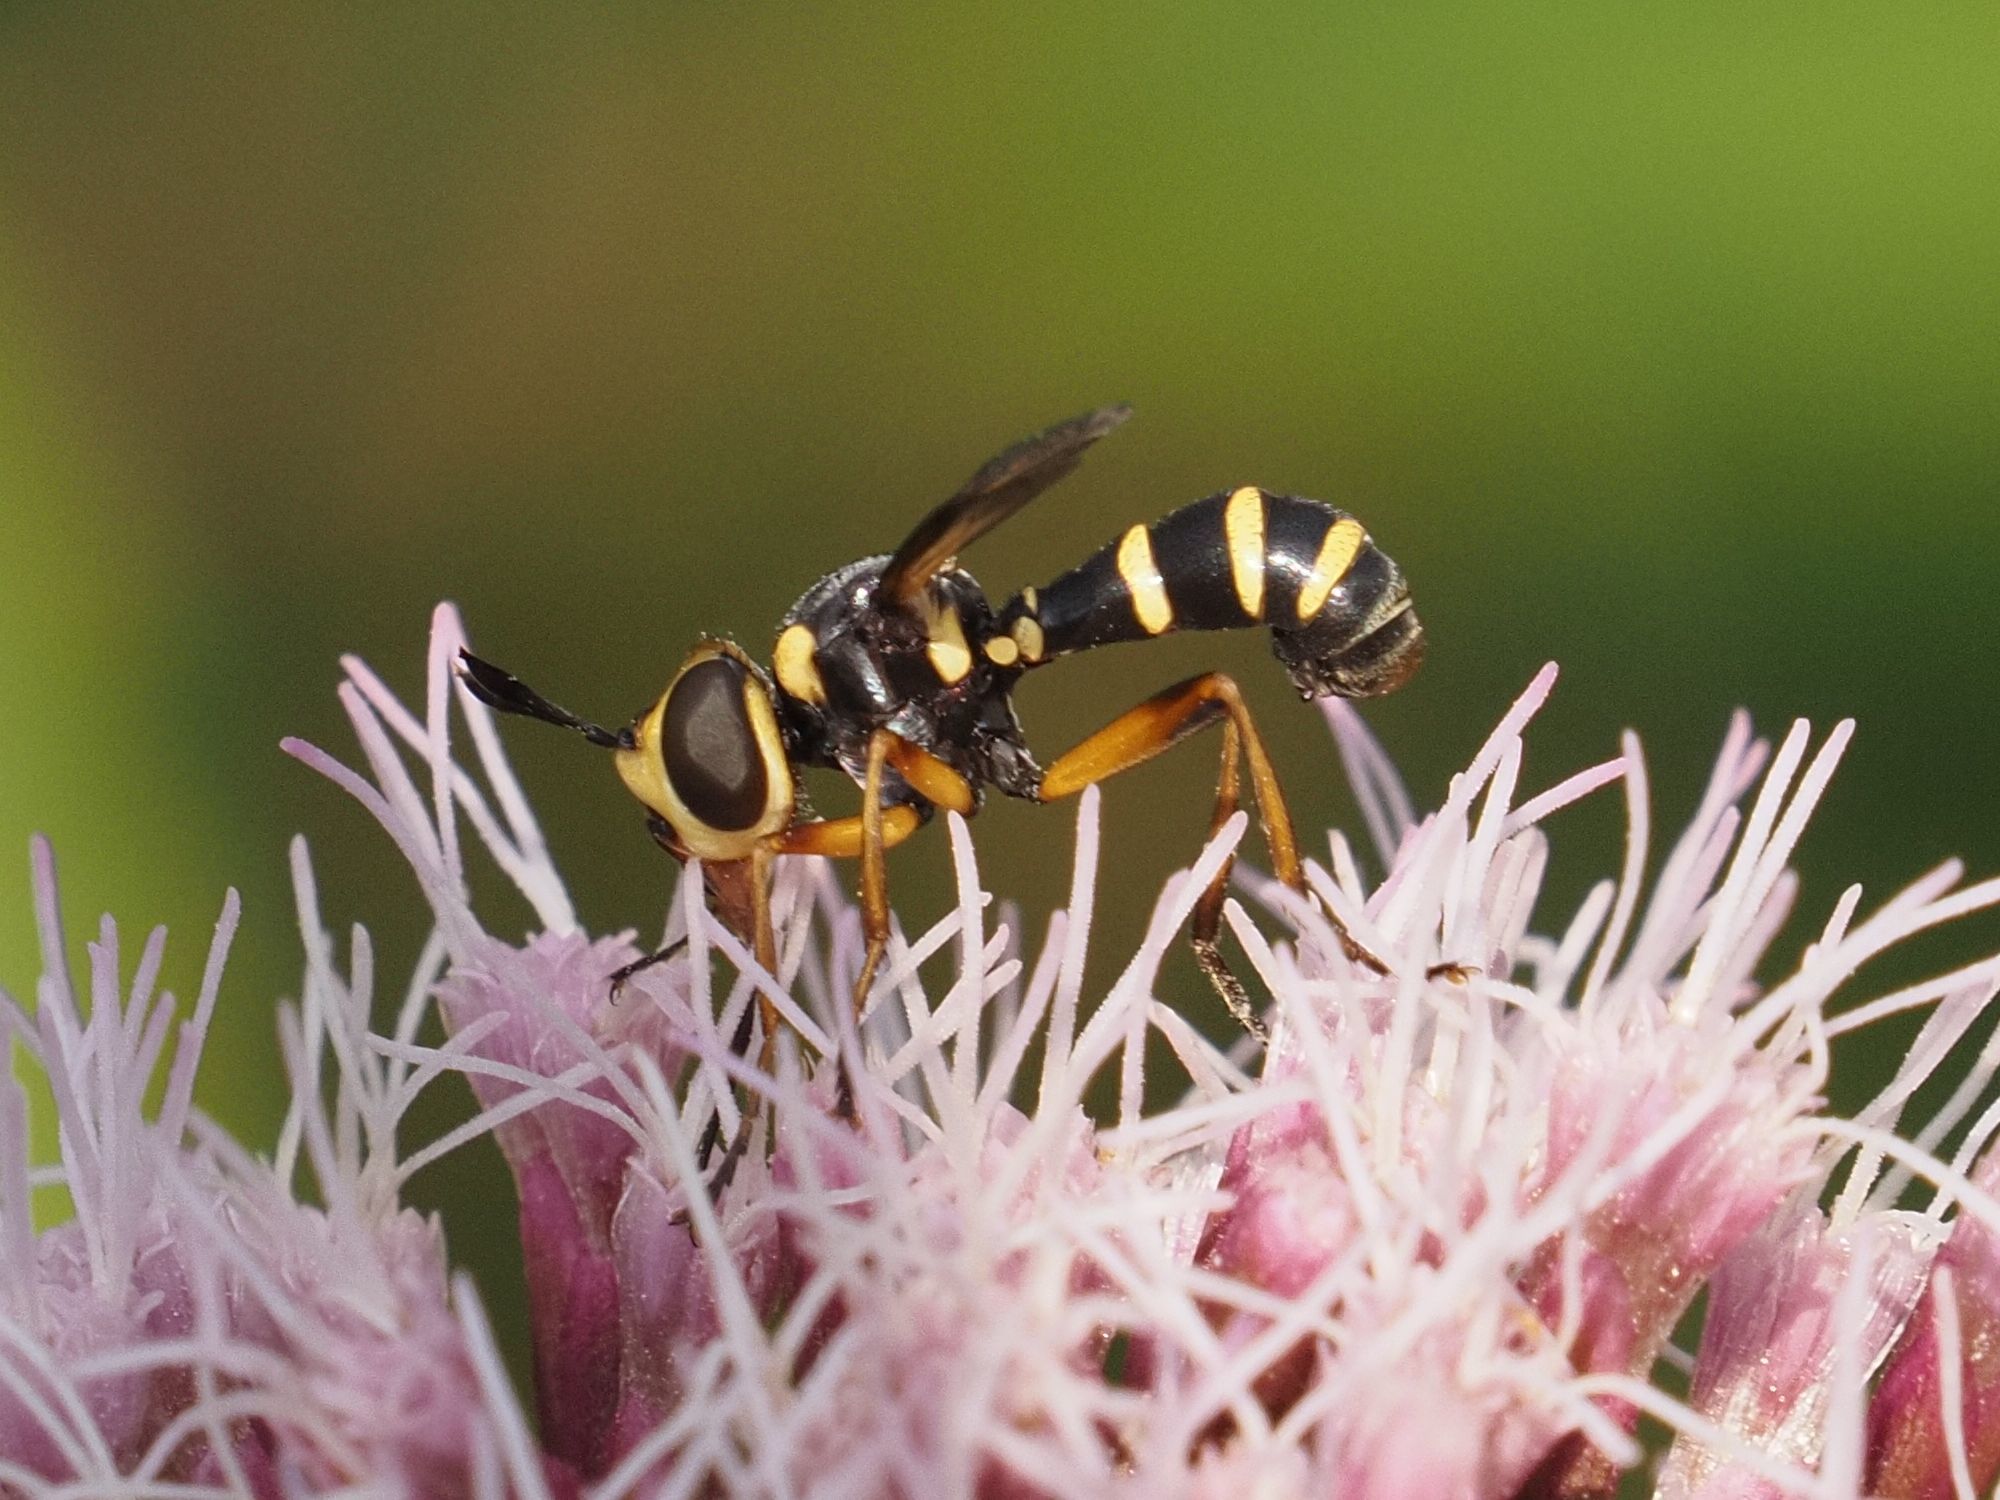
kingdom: Animalia
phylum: Arthropoda
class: Insecta
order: Diptera
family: Conopidae
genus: Conops
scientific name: Conops scutellatus
